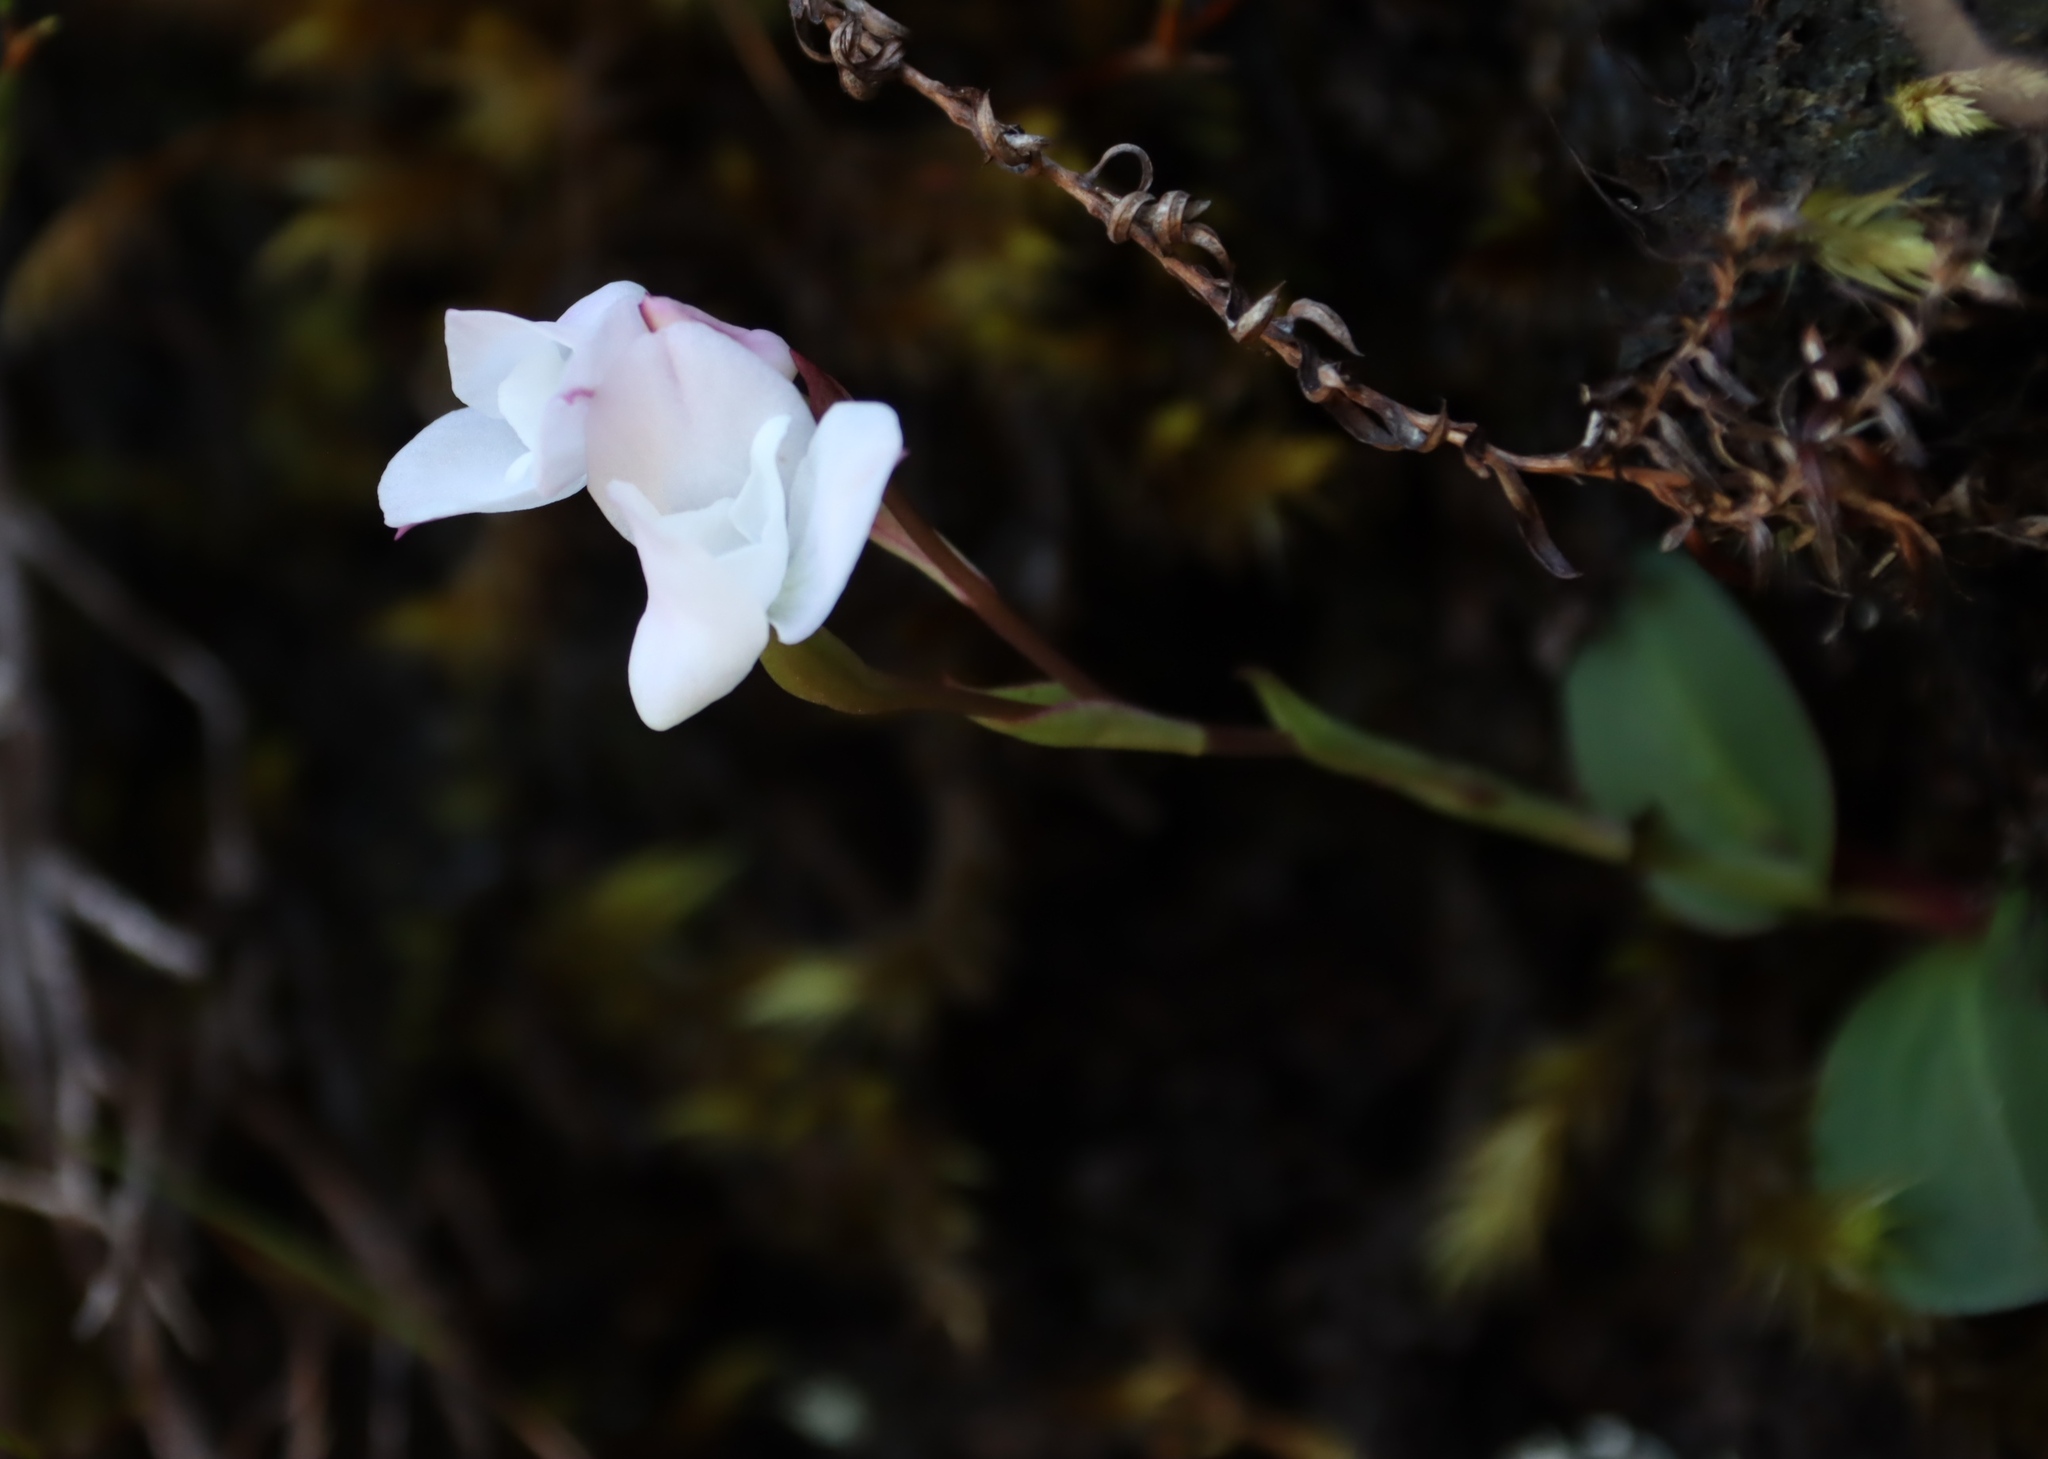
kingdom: Plantae
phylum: Tracheophyta
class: Liliopsida
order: Asparagales
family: Orchidaceae
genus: Disa
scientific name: Disa rosea
